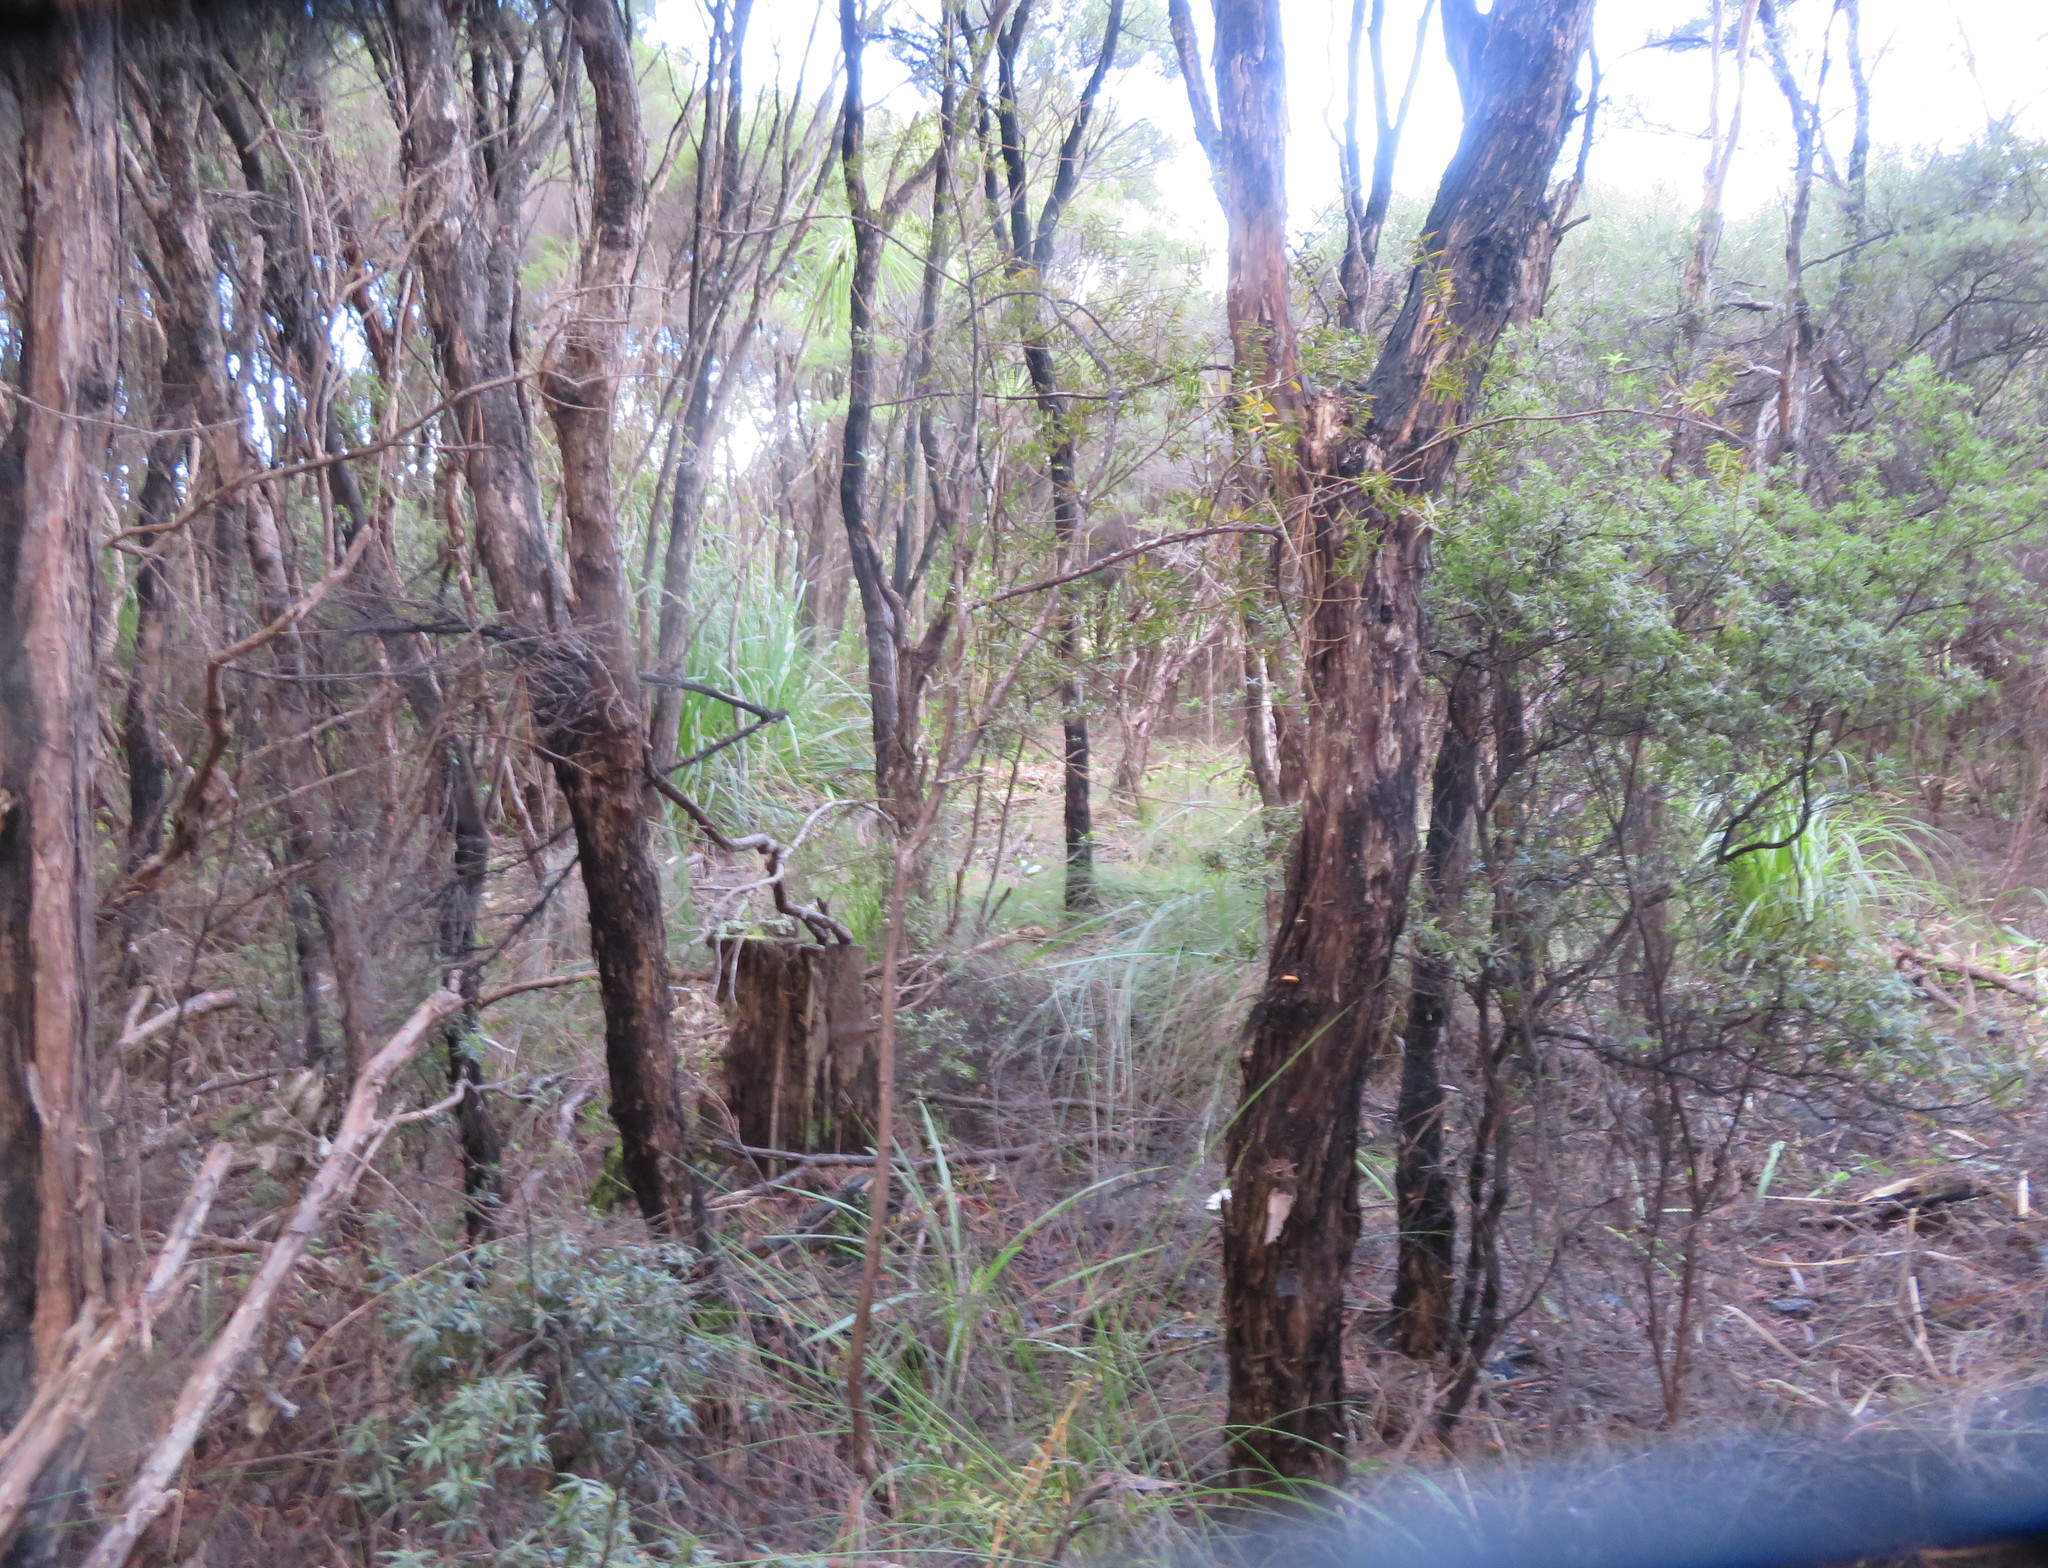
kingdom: Plantae
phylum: Tracheophyta
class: Pinopsida
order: Pinales
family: Podocarpaceae
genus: Podocarpus
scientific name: Podocarpus totara
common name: Totara
